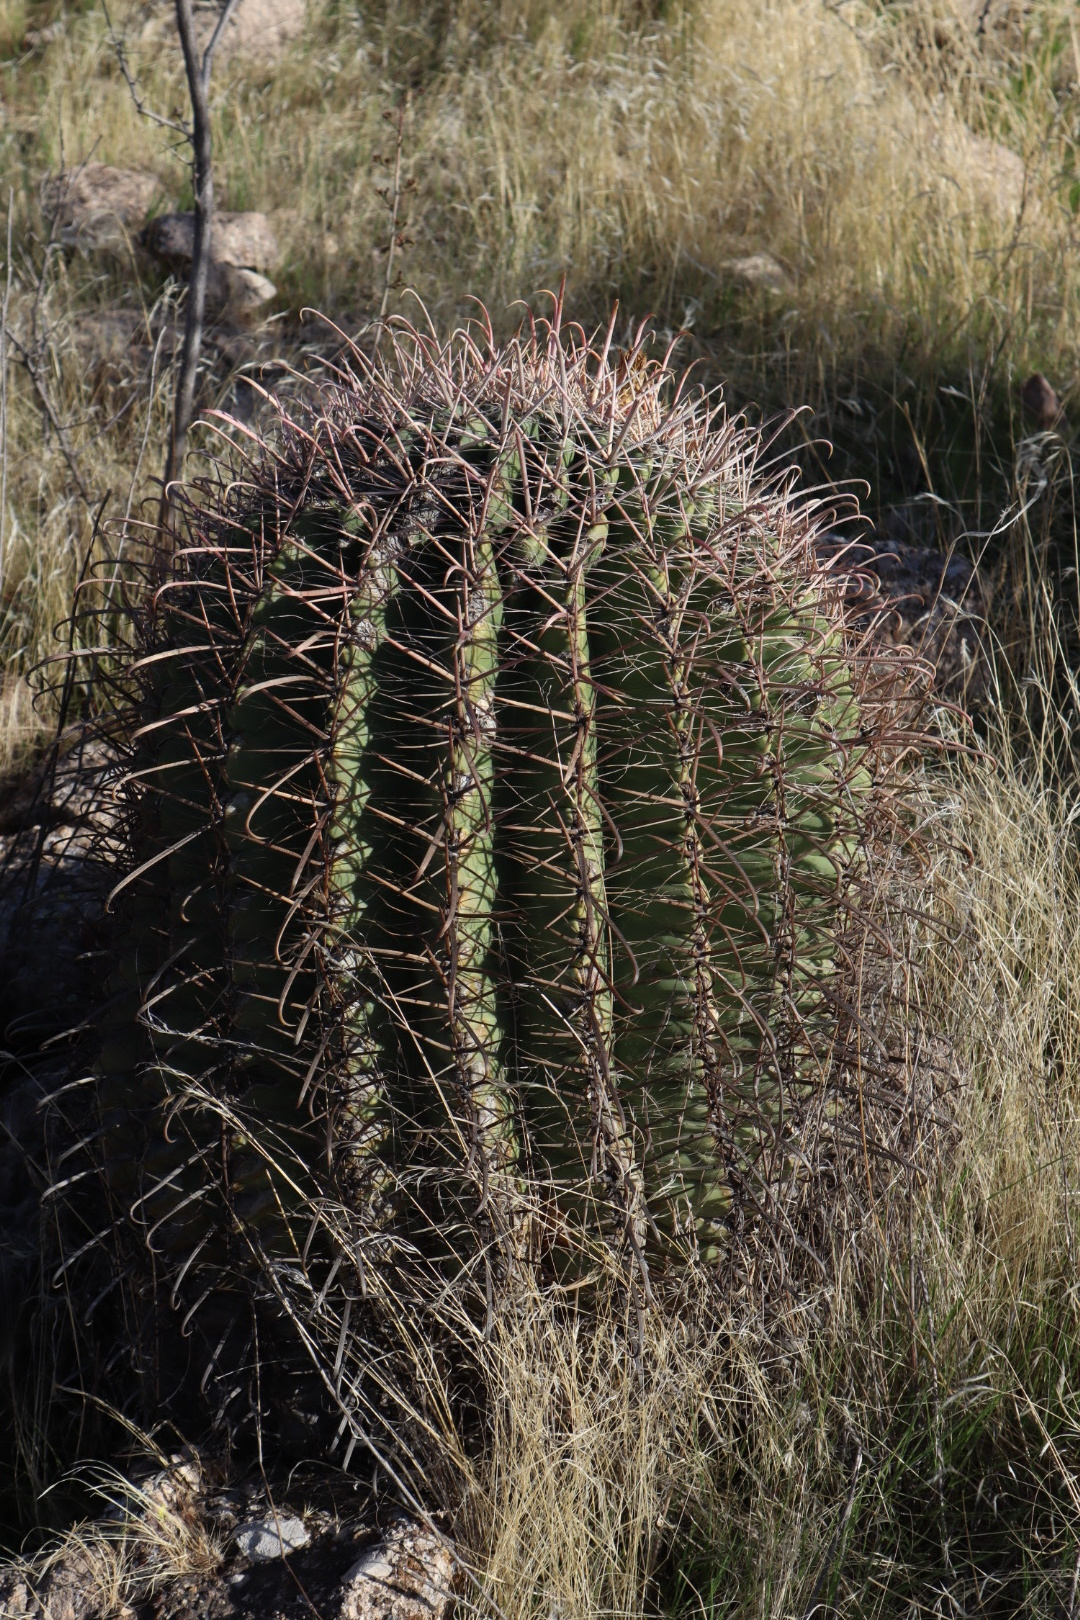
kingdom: Plantae
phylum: Tracheophyta
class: Magnoliopsida
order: Caryophyllales
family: Cactaceae
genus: Ferocactus
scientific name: Ferocactus wislizeni
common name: Candy barrel cactus
